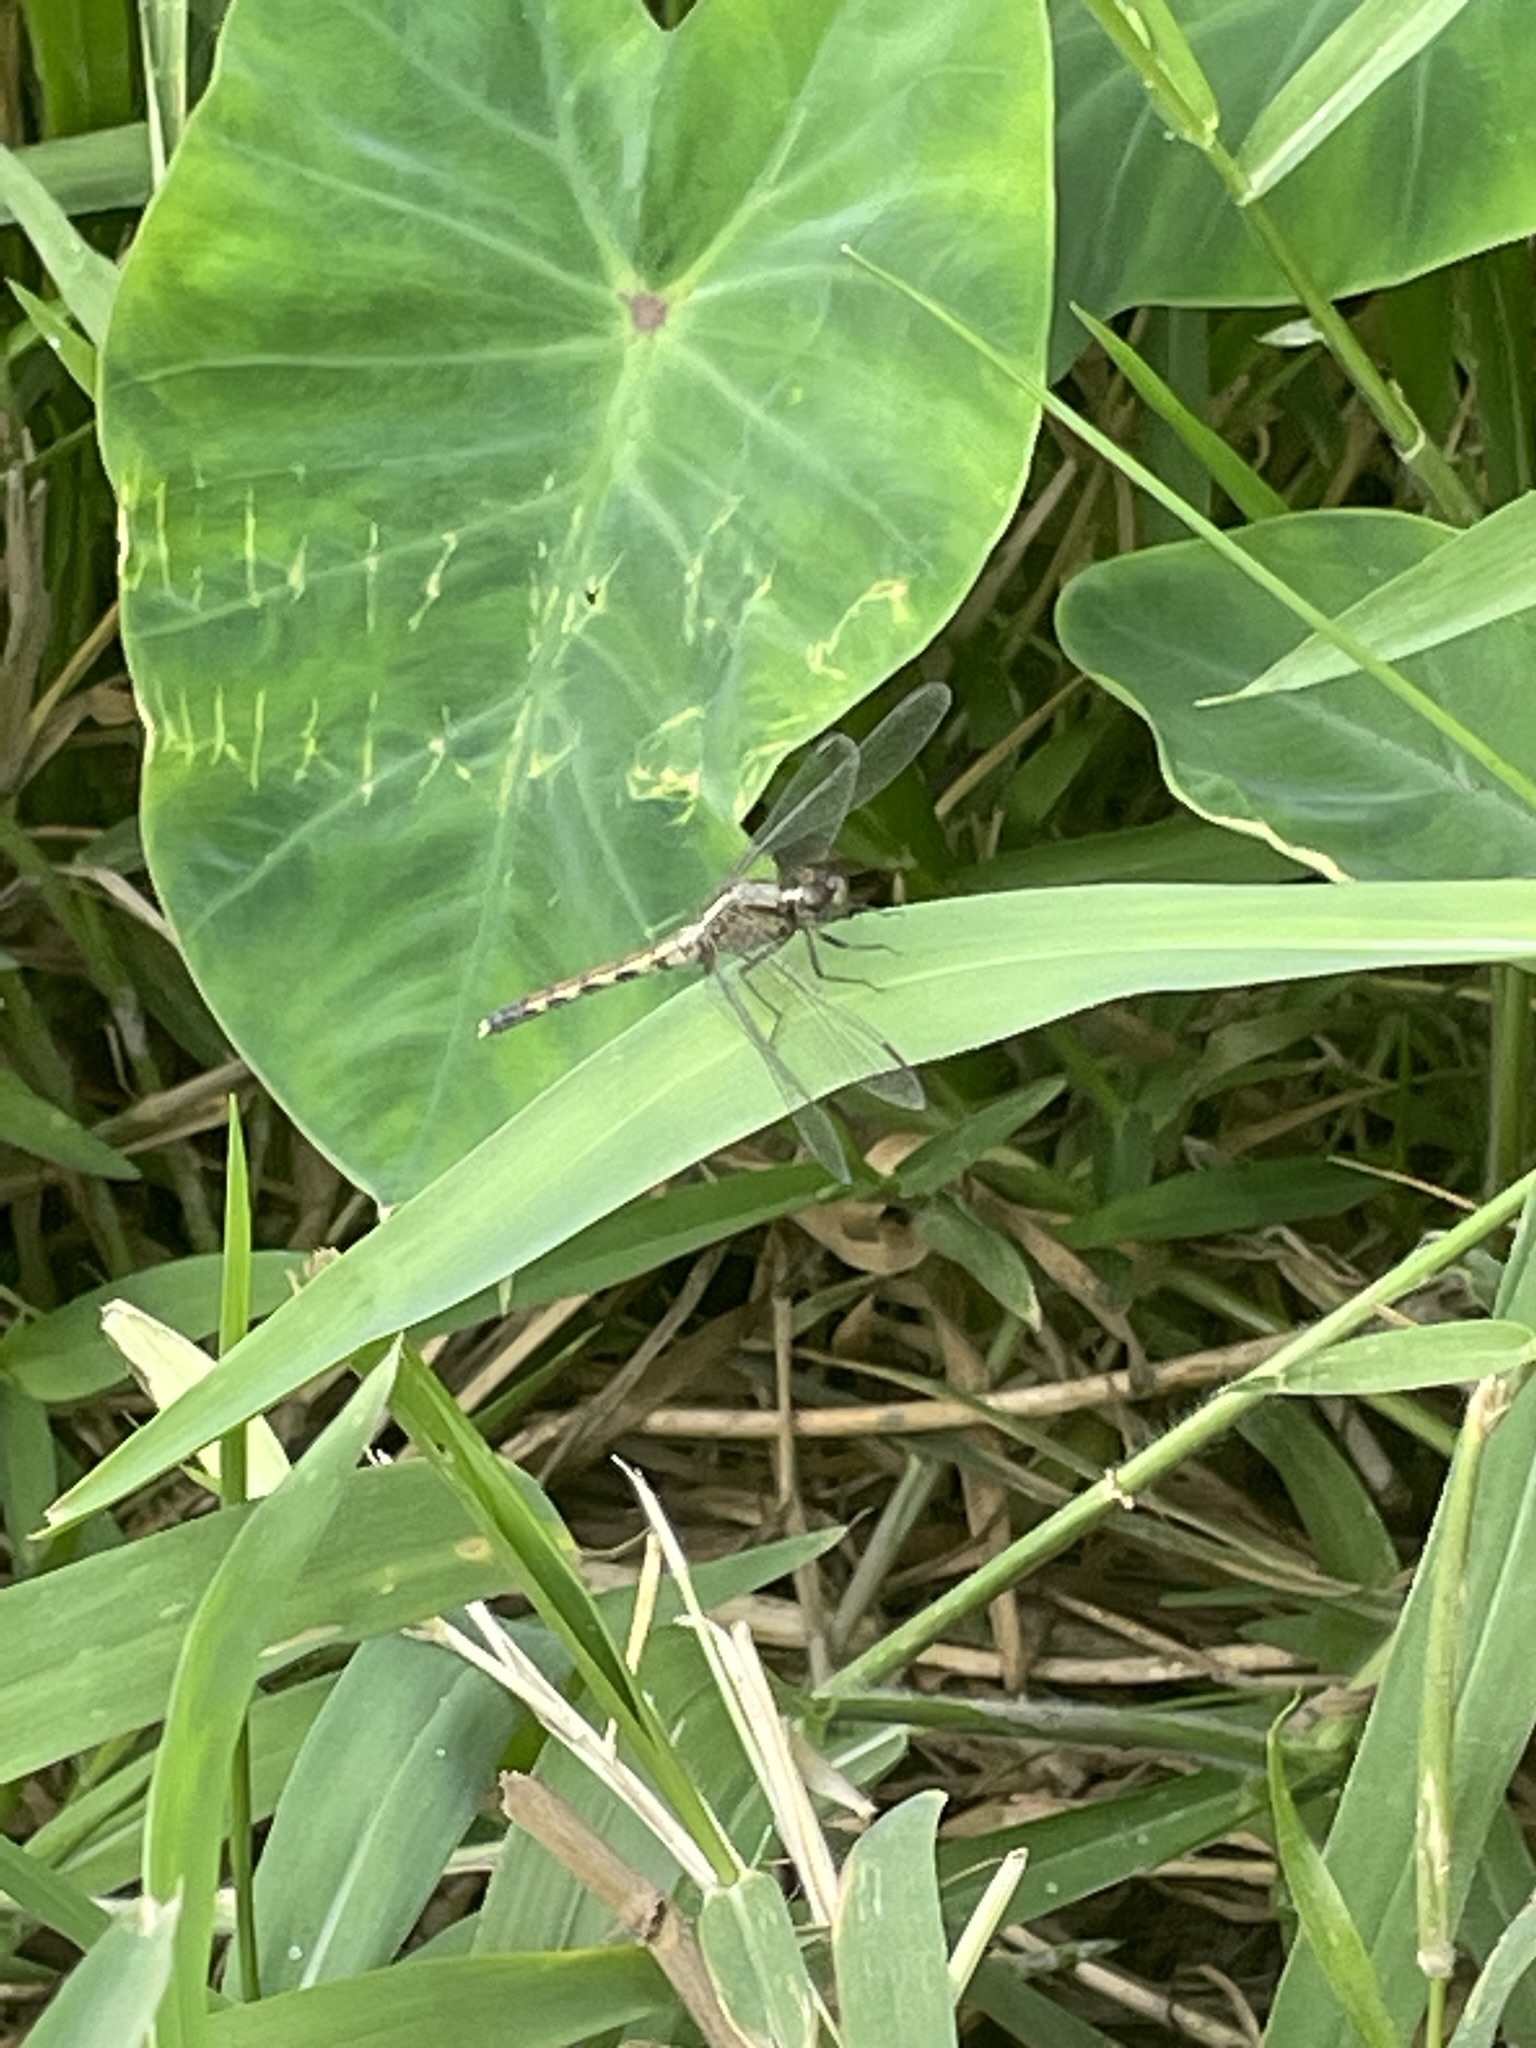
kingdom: Animalia
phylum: Arthropoda
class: Insecta
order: Odonata
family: Libellulidae
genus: Erythrodiplax
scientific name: Erythrodiplax cleopatra
